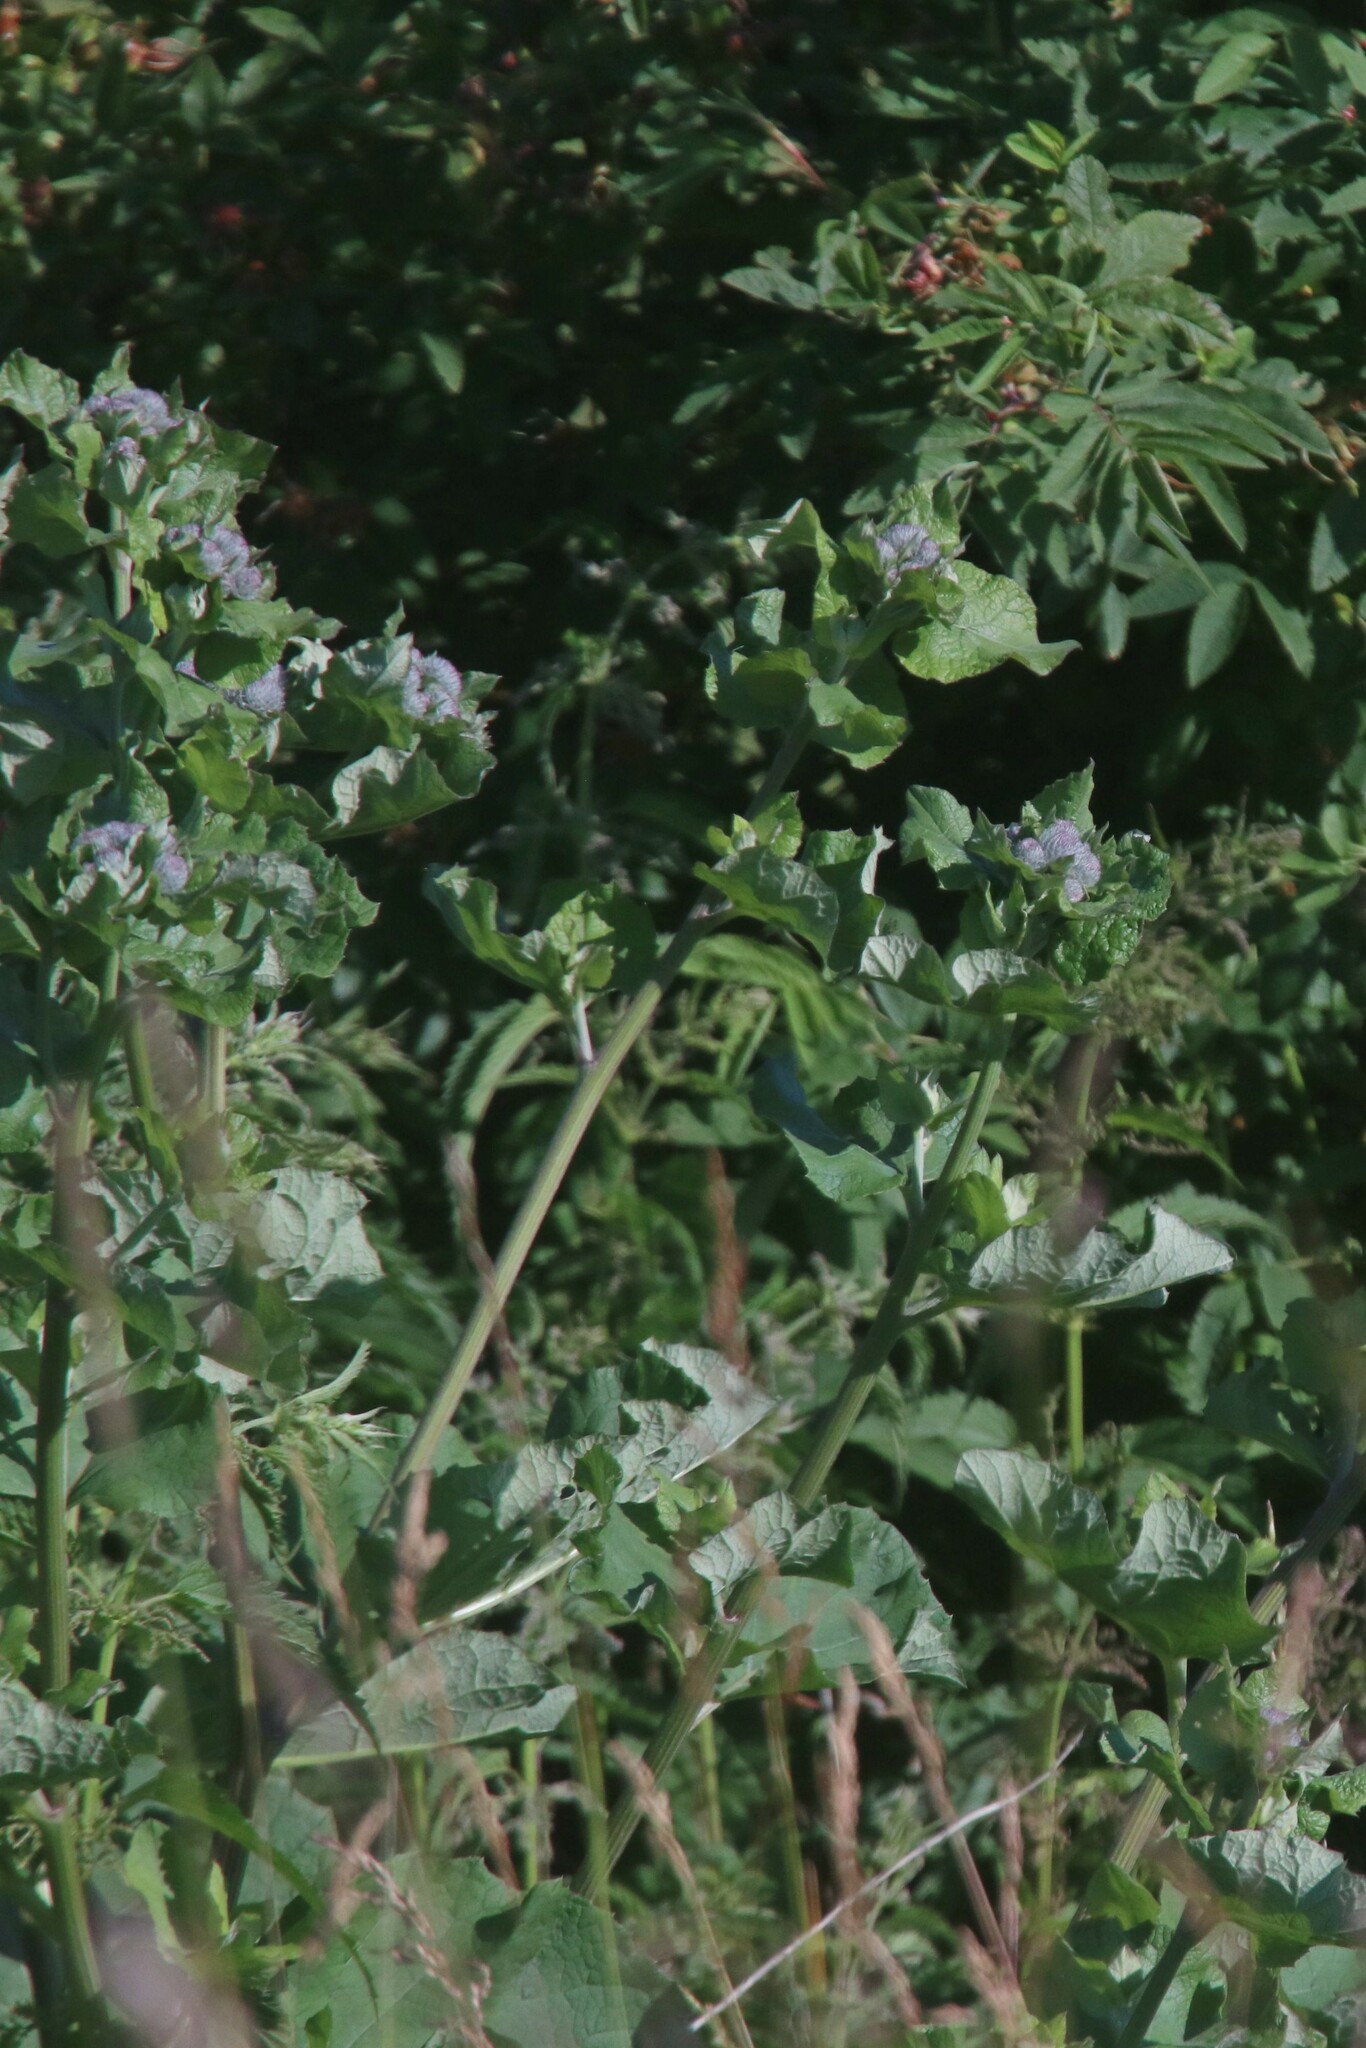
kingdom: Plantae
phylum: Tracheophyta
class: Magnoliopsida
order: Asterales
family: Asteraceae
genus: Arctium
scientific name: Arctium tomentosum
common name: Woolly burdock
